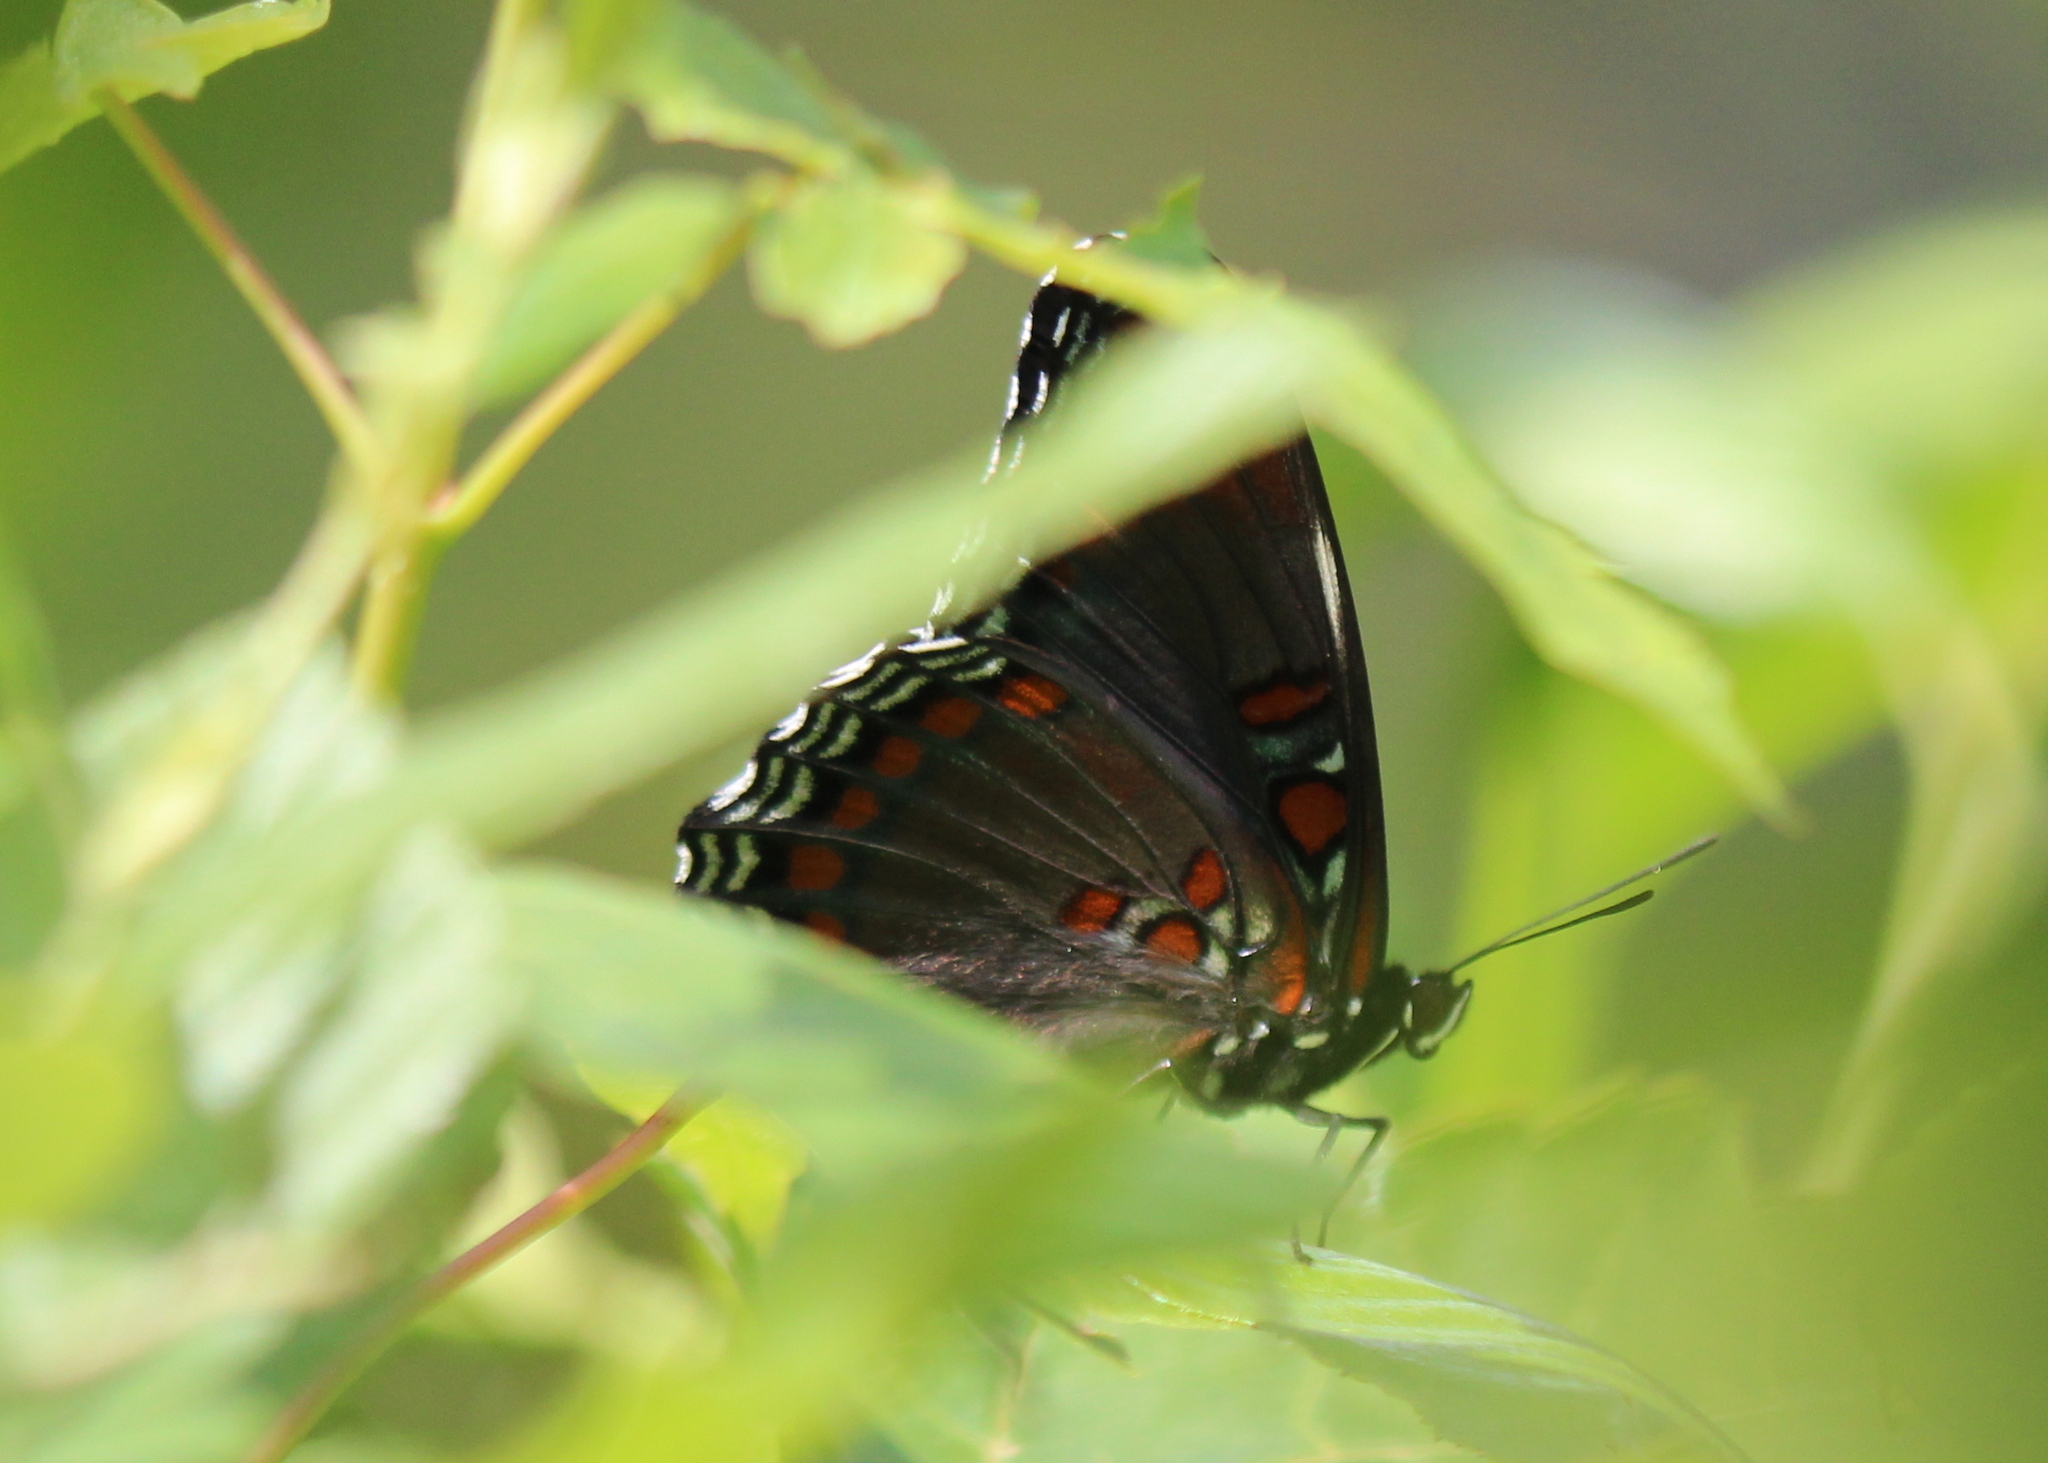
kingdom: Animalia
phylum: Arthropoda
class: Insecta
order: Lepidoptera
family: Nymphalidae
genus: Limenitis
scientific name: Limenitis astyanax
